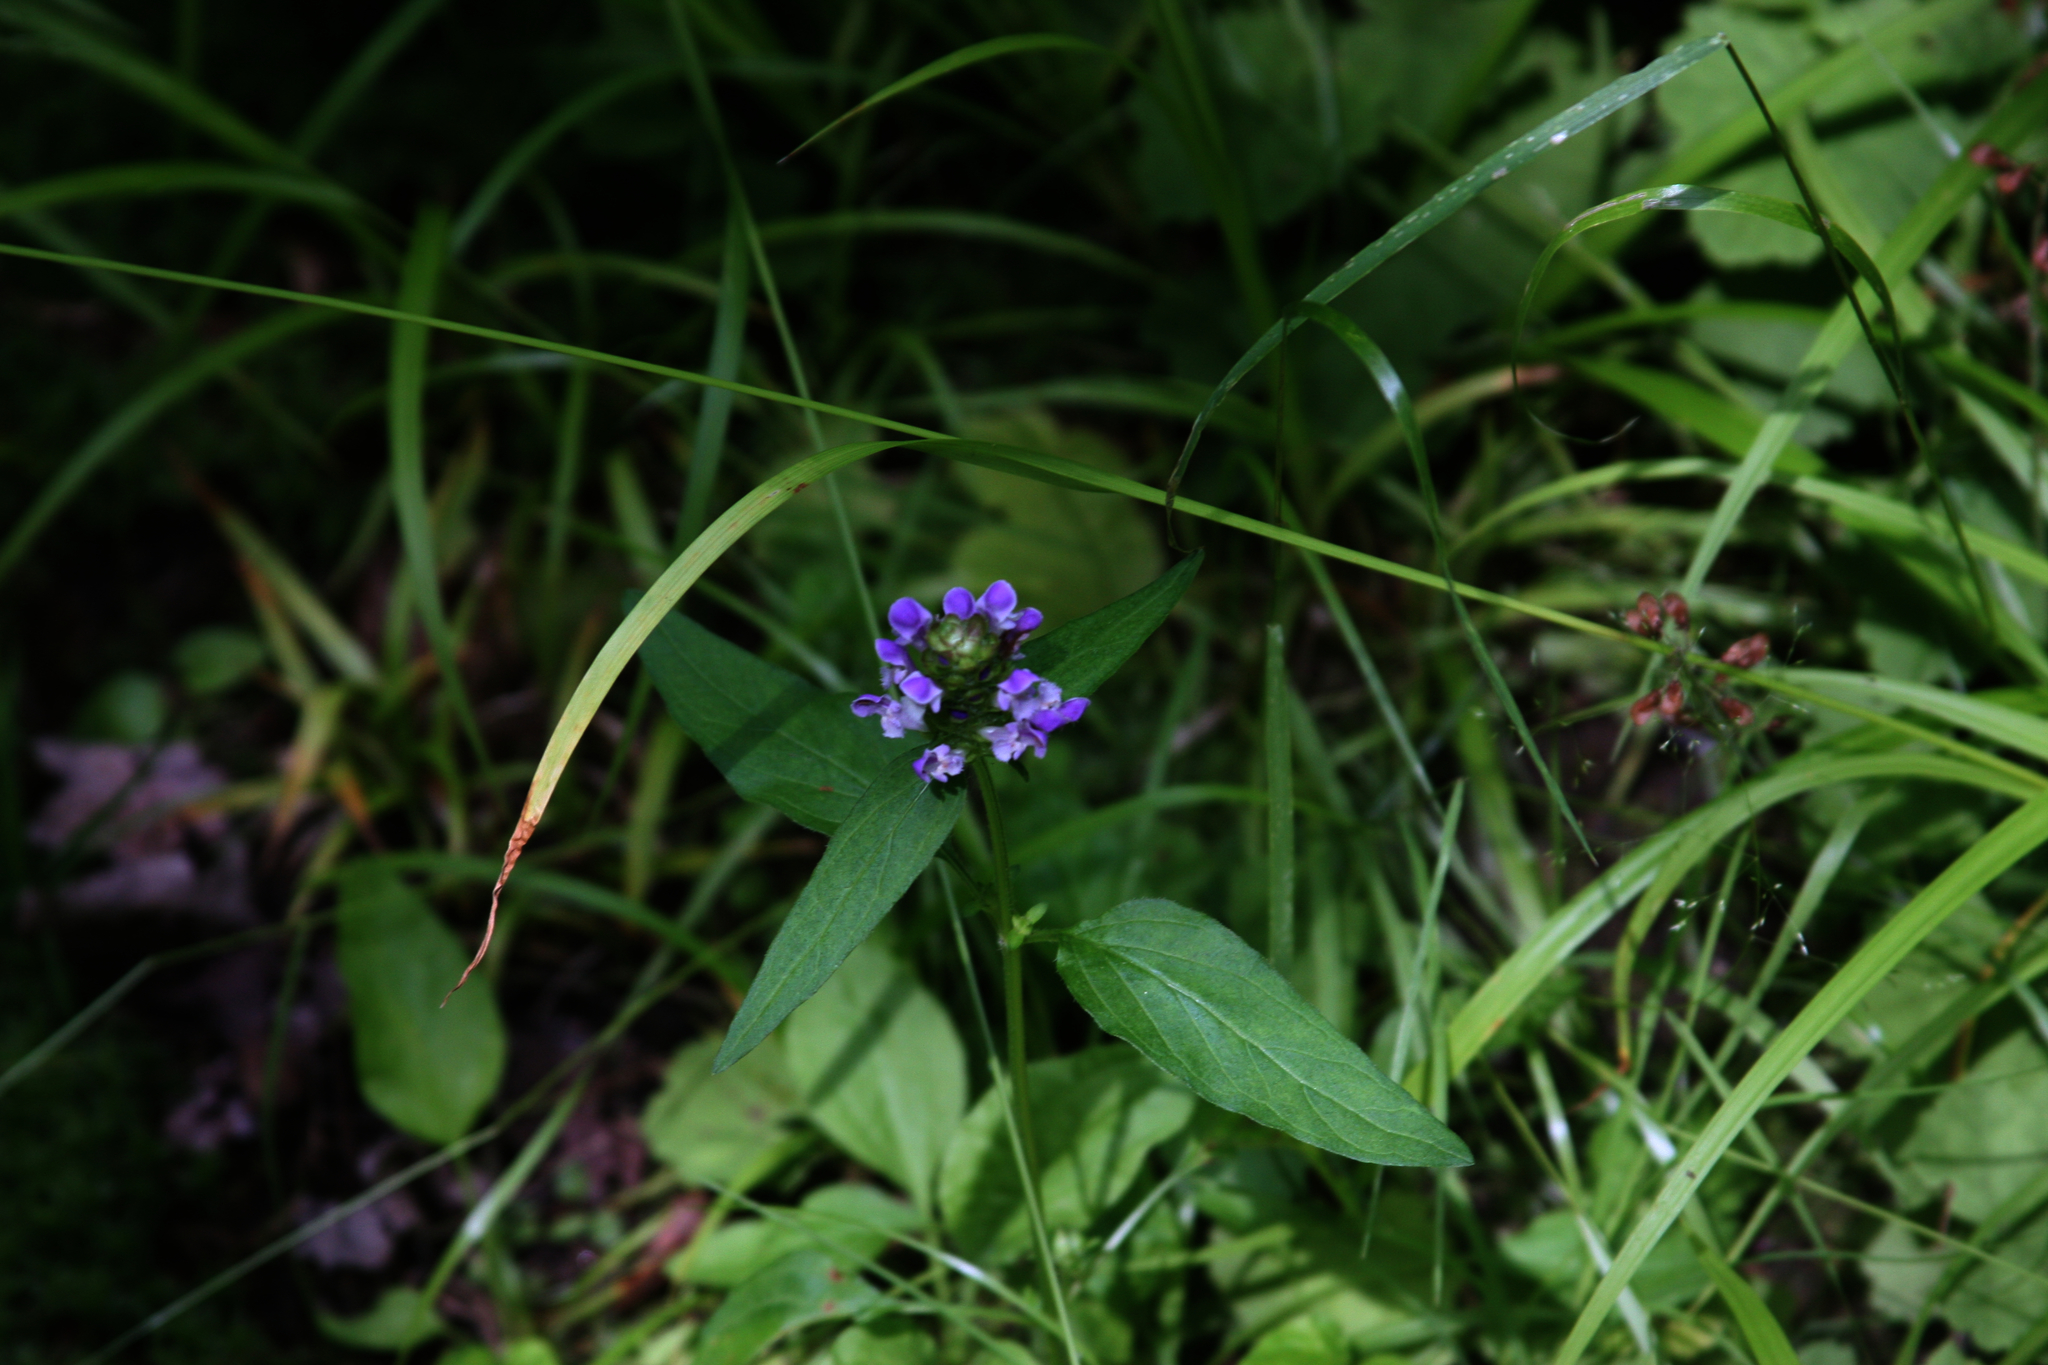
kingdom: Plantae
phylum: Tracheophyta
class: Magnoliopsida
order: Lamiales
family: Lamiaceae
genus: Prunella
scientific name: Prunella vulgaris
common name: Heal-all
